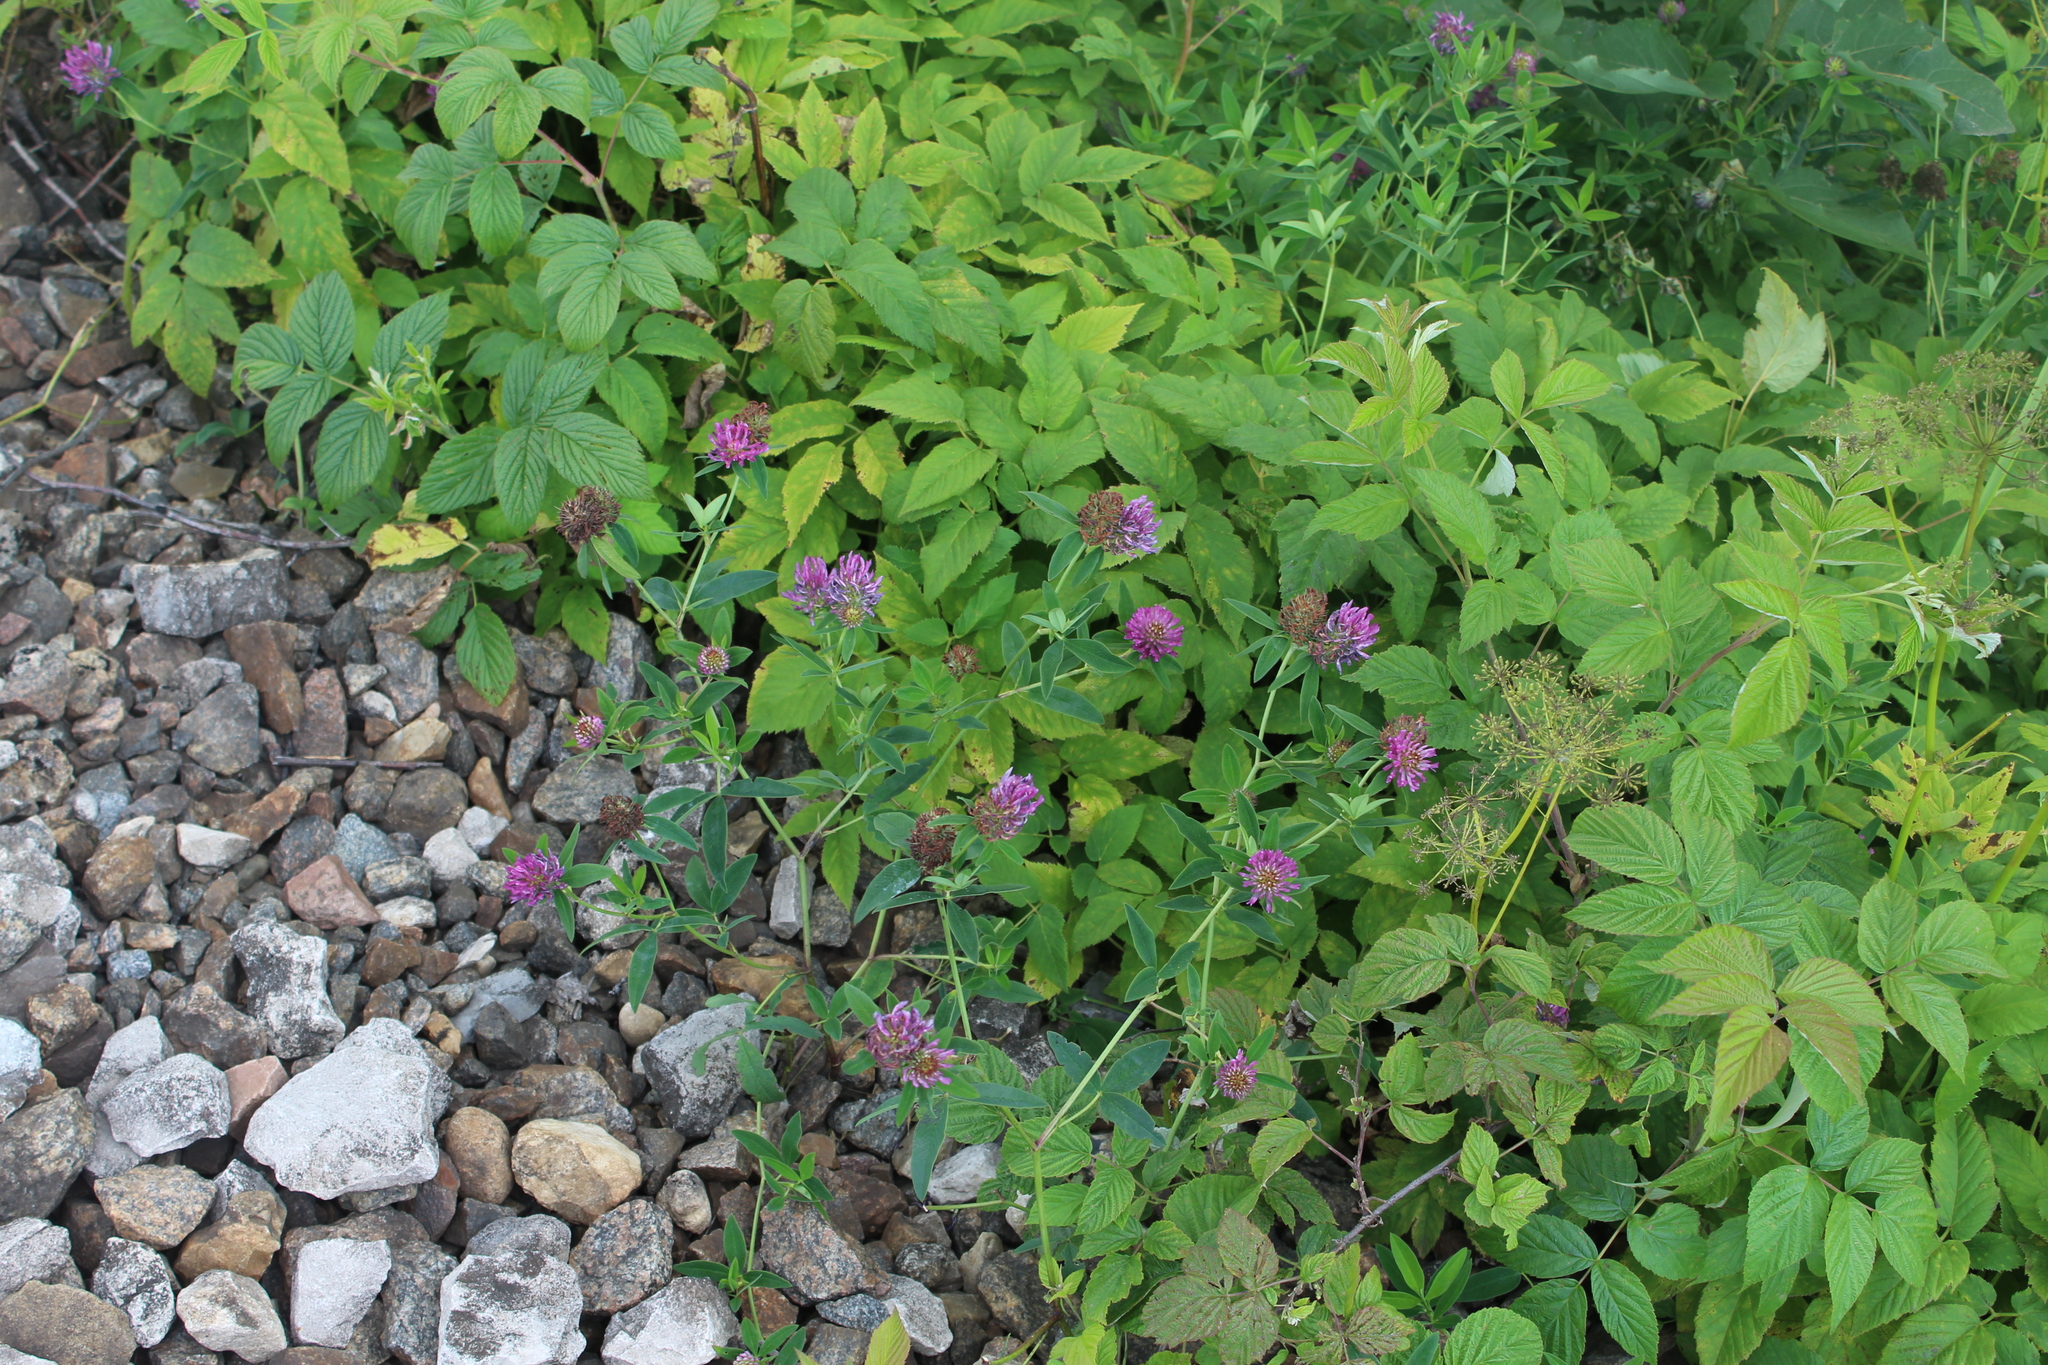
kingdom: Plantae
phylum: Tracheophyta
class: Magnoliopsida
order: Fabales
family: Fabaceae
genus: Trifolium
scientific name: Trifolium medium
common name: Zigzag clover
